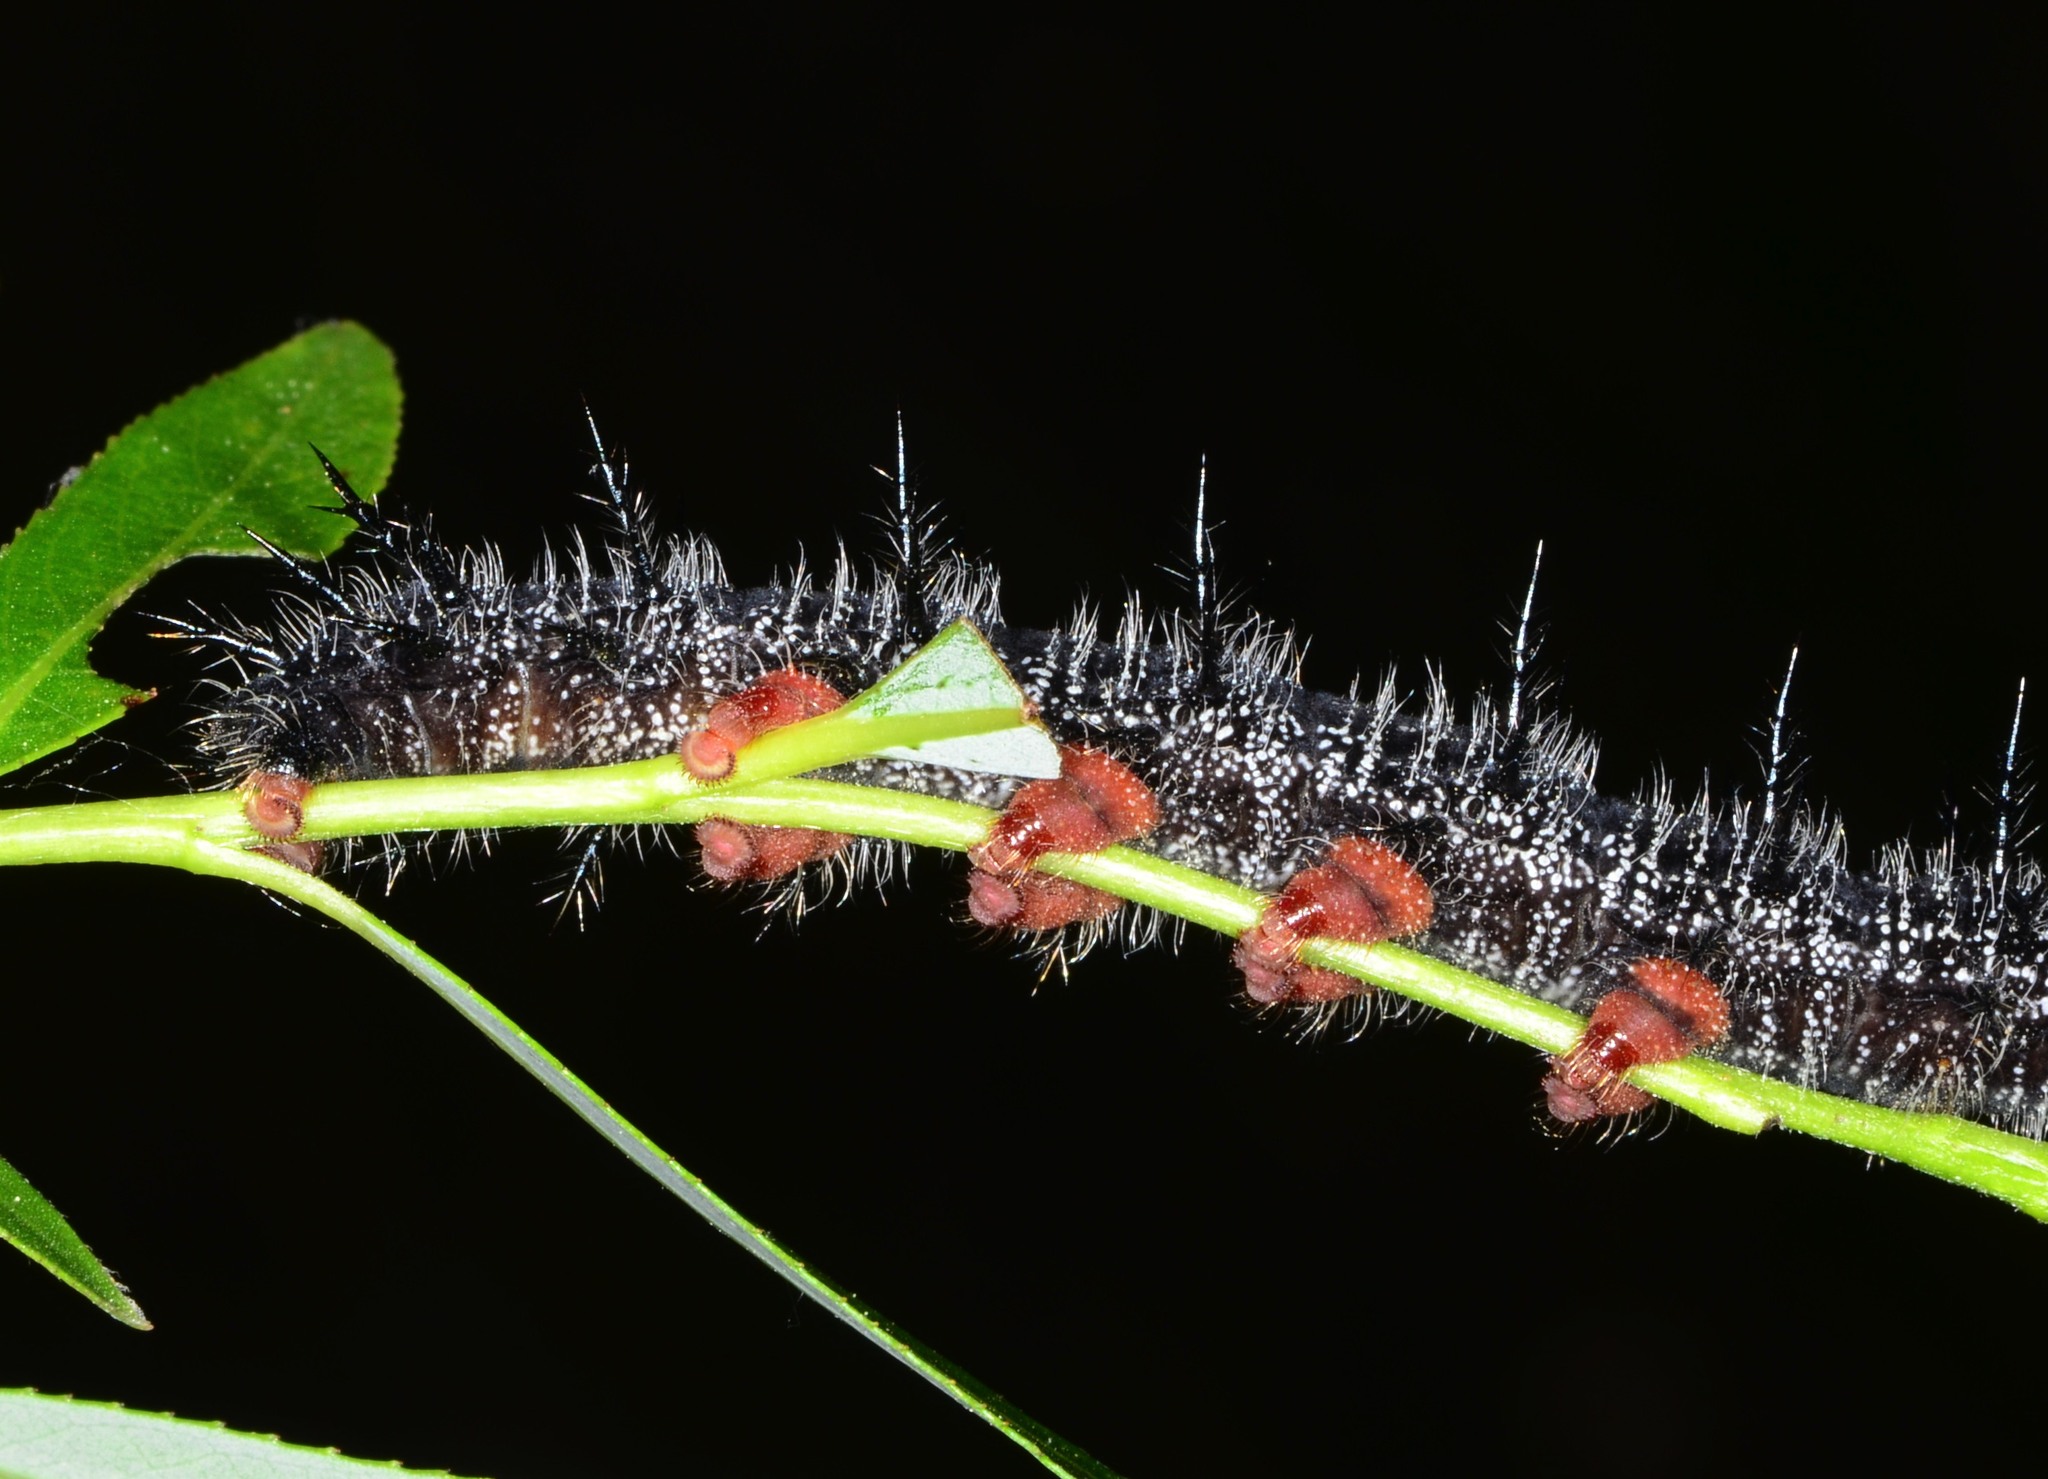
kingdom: Animalia
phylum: Arthropoda
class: Insecta
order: Lepidoptera
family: Nymphalidae
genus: Nymphalis
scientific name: Nymphalis antiopa
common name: Camberwell beauty
